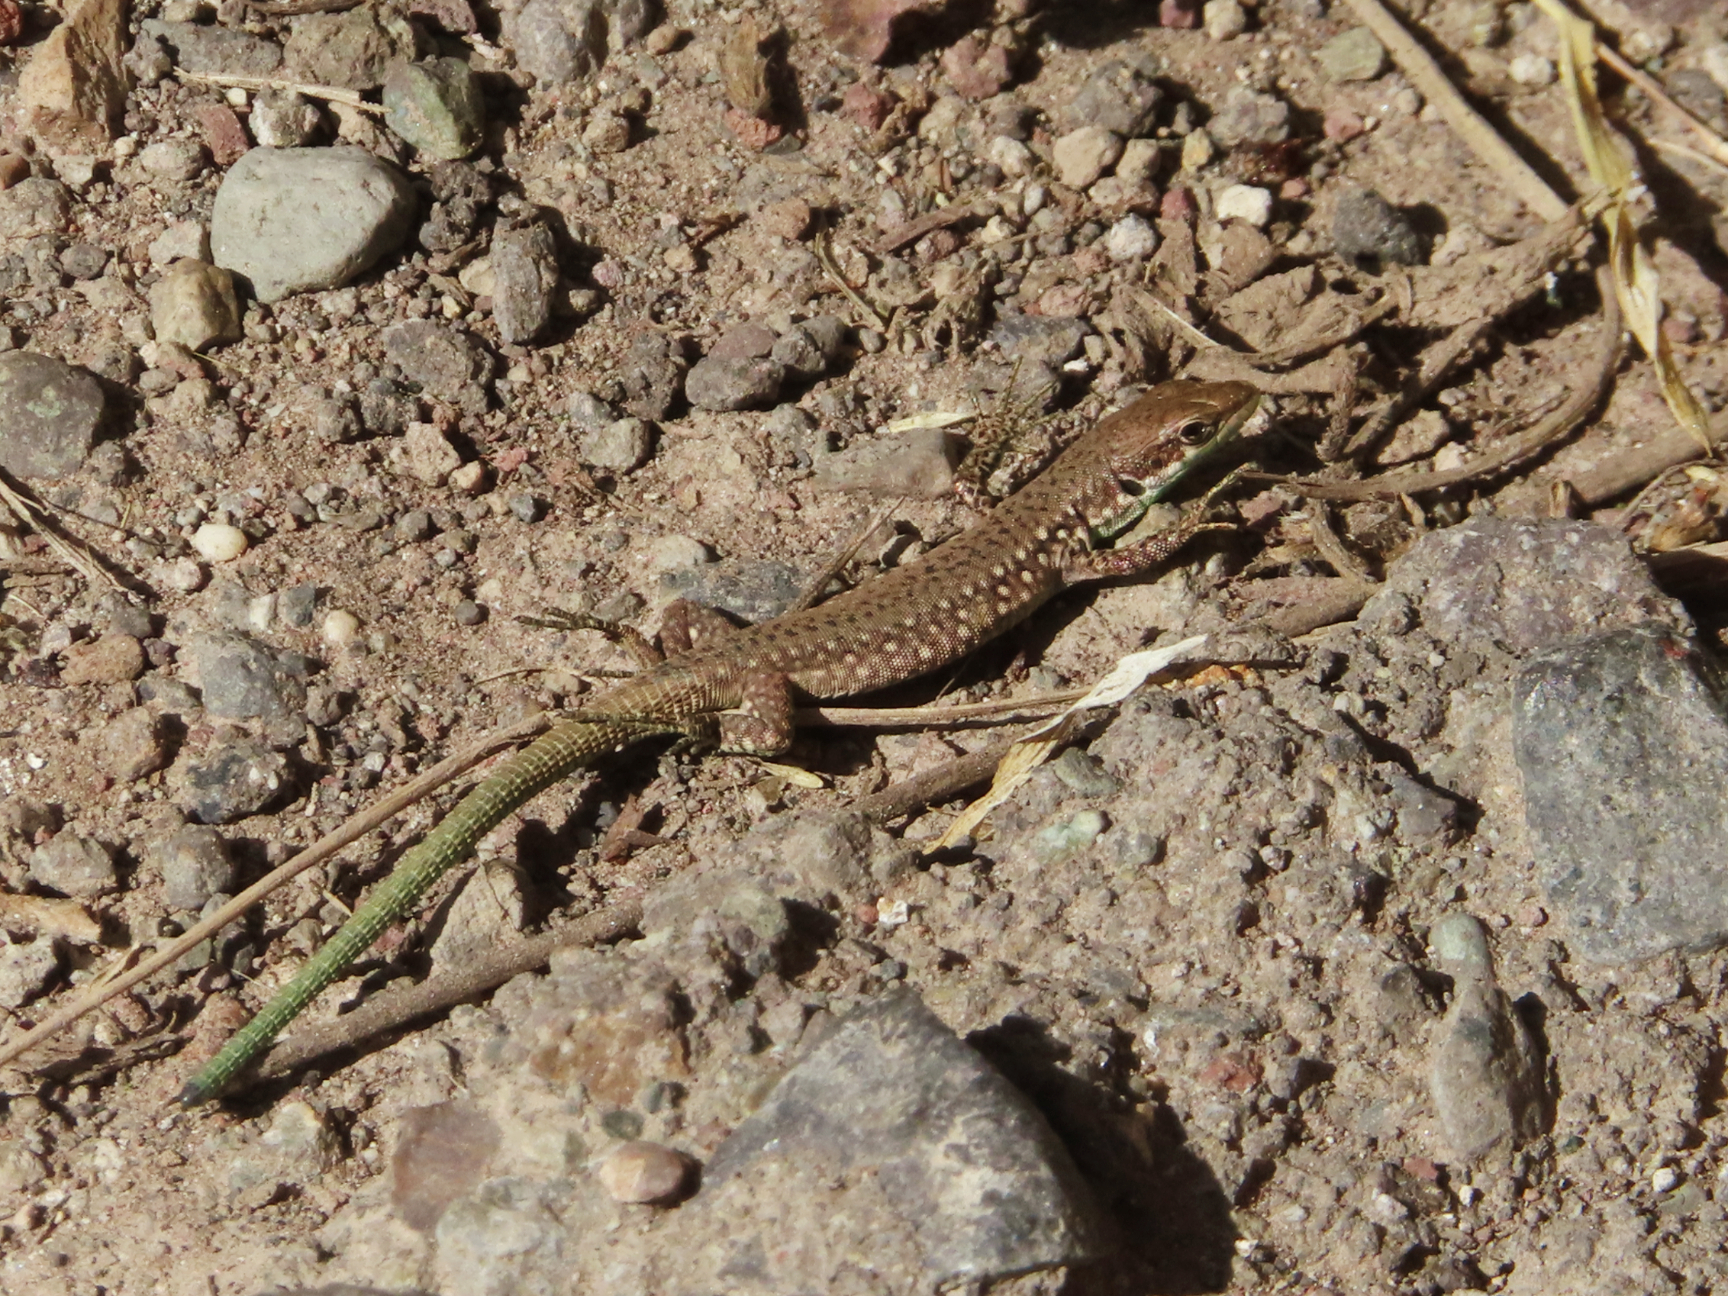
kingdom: Animalia
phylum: Chordata
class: Squamata
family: Lacertidae
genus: Darevskia
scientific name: Darevskia raddei
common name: Radde's lizard
